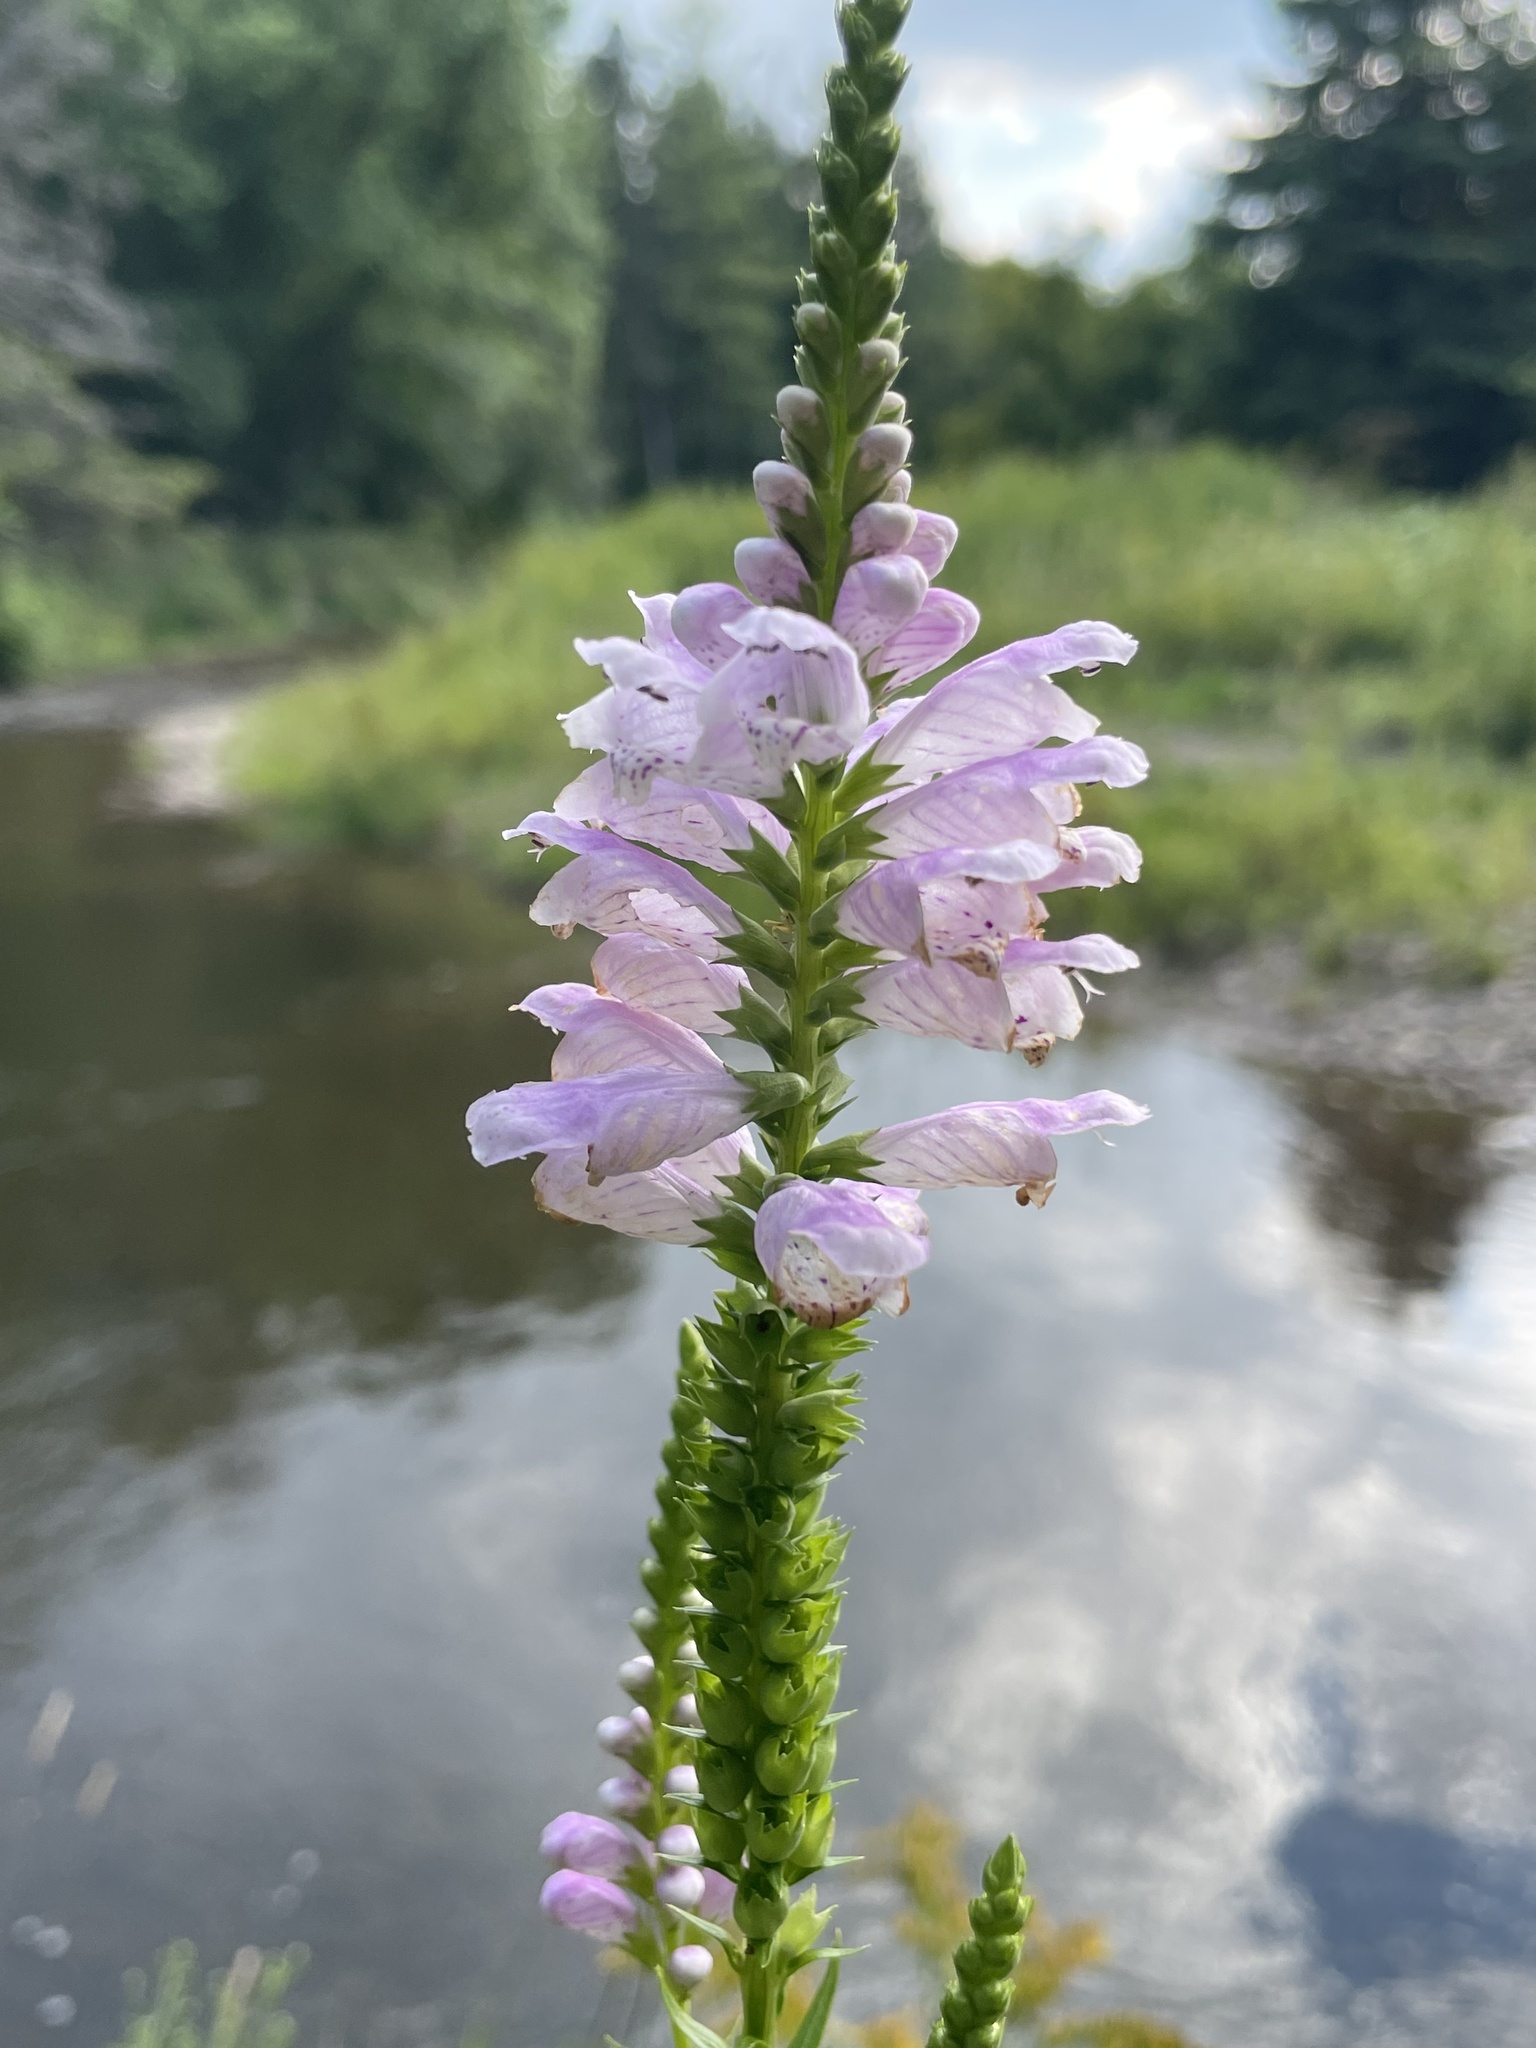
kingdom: Plantae
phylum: Tracheophyta
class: Magnoliopsida
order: Lamiales
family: Lamiaceae
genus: Physostegia
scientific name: Physostegia virginiana
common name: Obedient-plant
